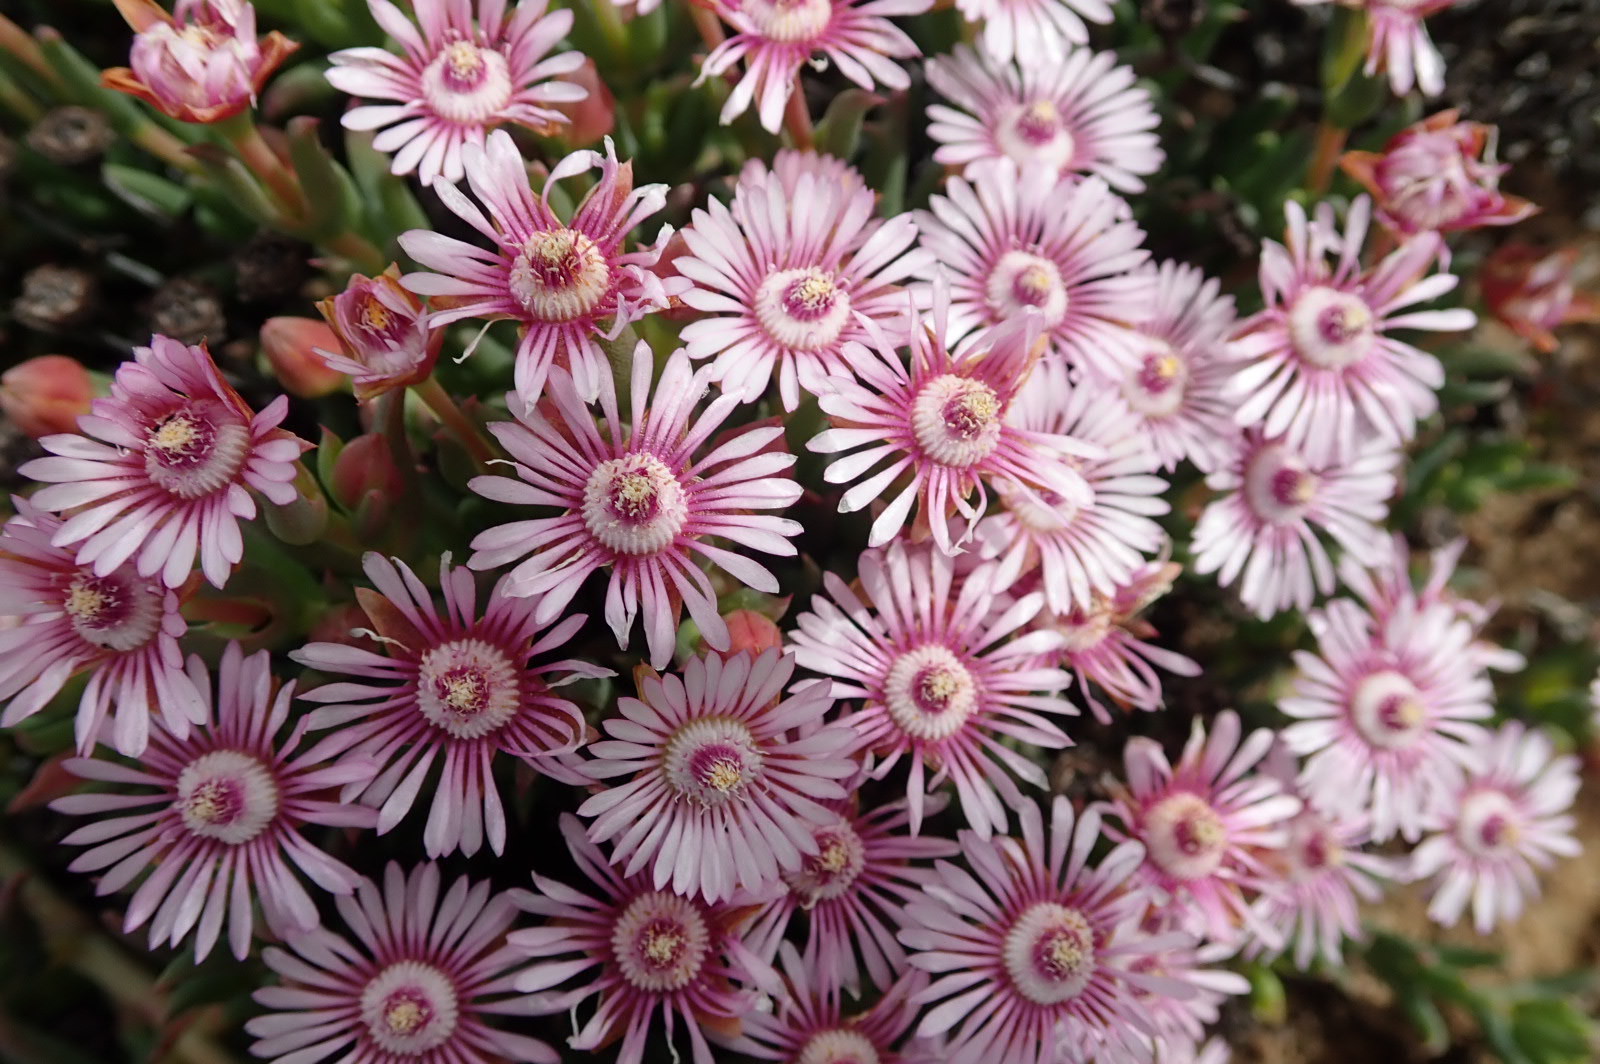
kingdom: Plantae
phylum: Tracheophyta
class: Magnoliopsida
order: Caryophyllales
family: Aizoaceae
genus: Phiambolia
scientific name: Phiambolia gydouwensis
